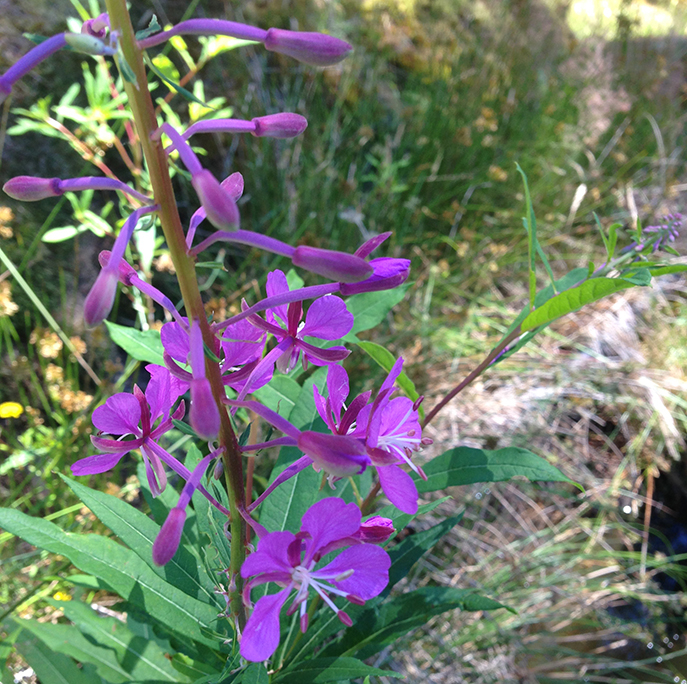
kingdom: Plantae
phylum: Tracheophyta
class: Magnoliopsida
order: Myrtales
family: Onagraceae
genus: Chamaenerion
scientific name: Chamaenerion angustifolium
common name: Fireweed
